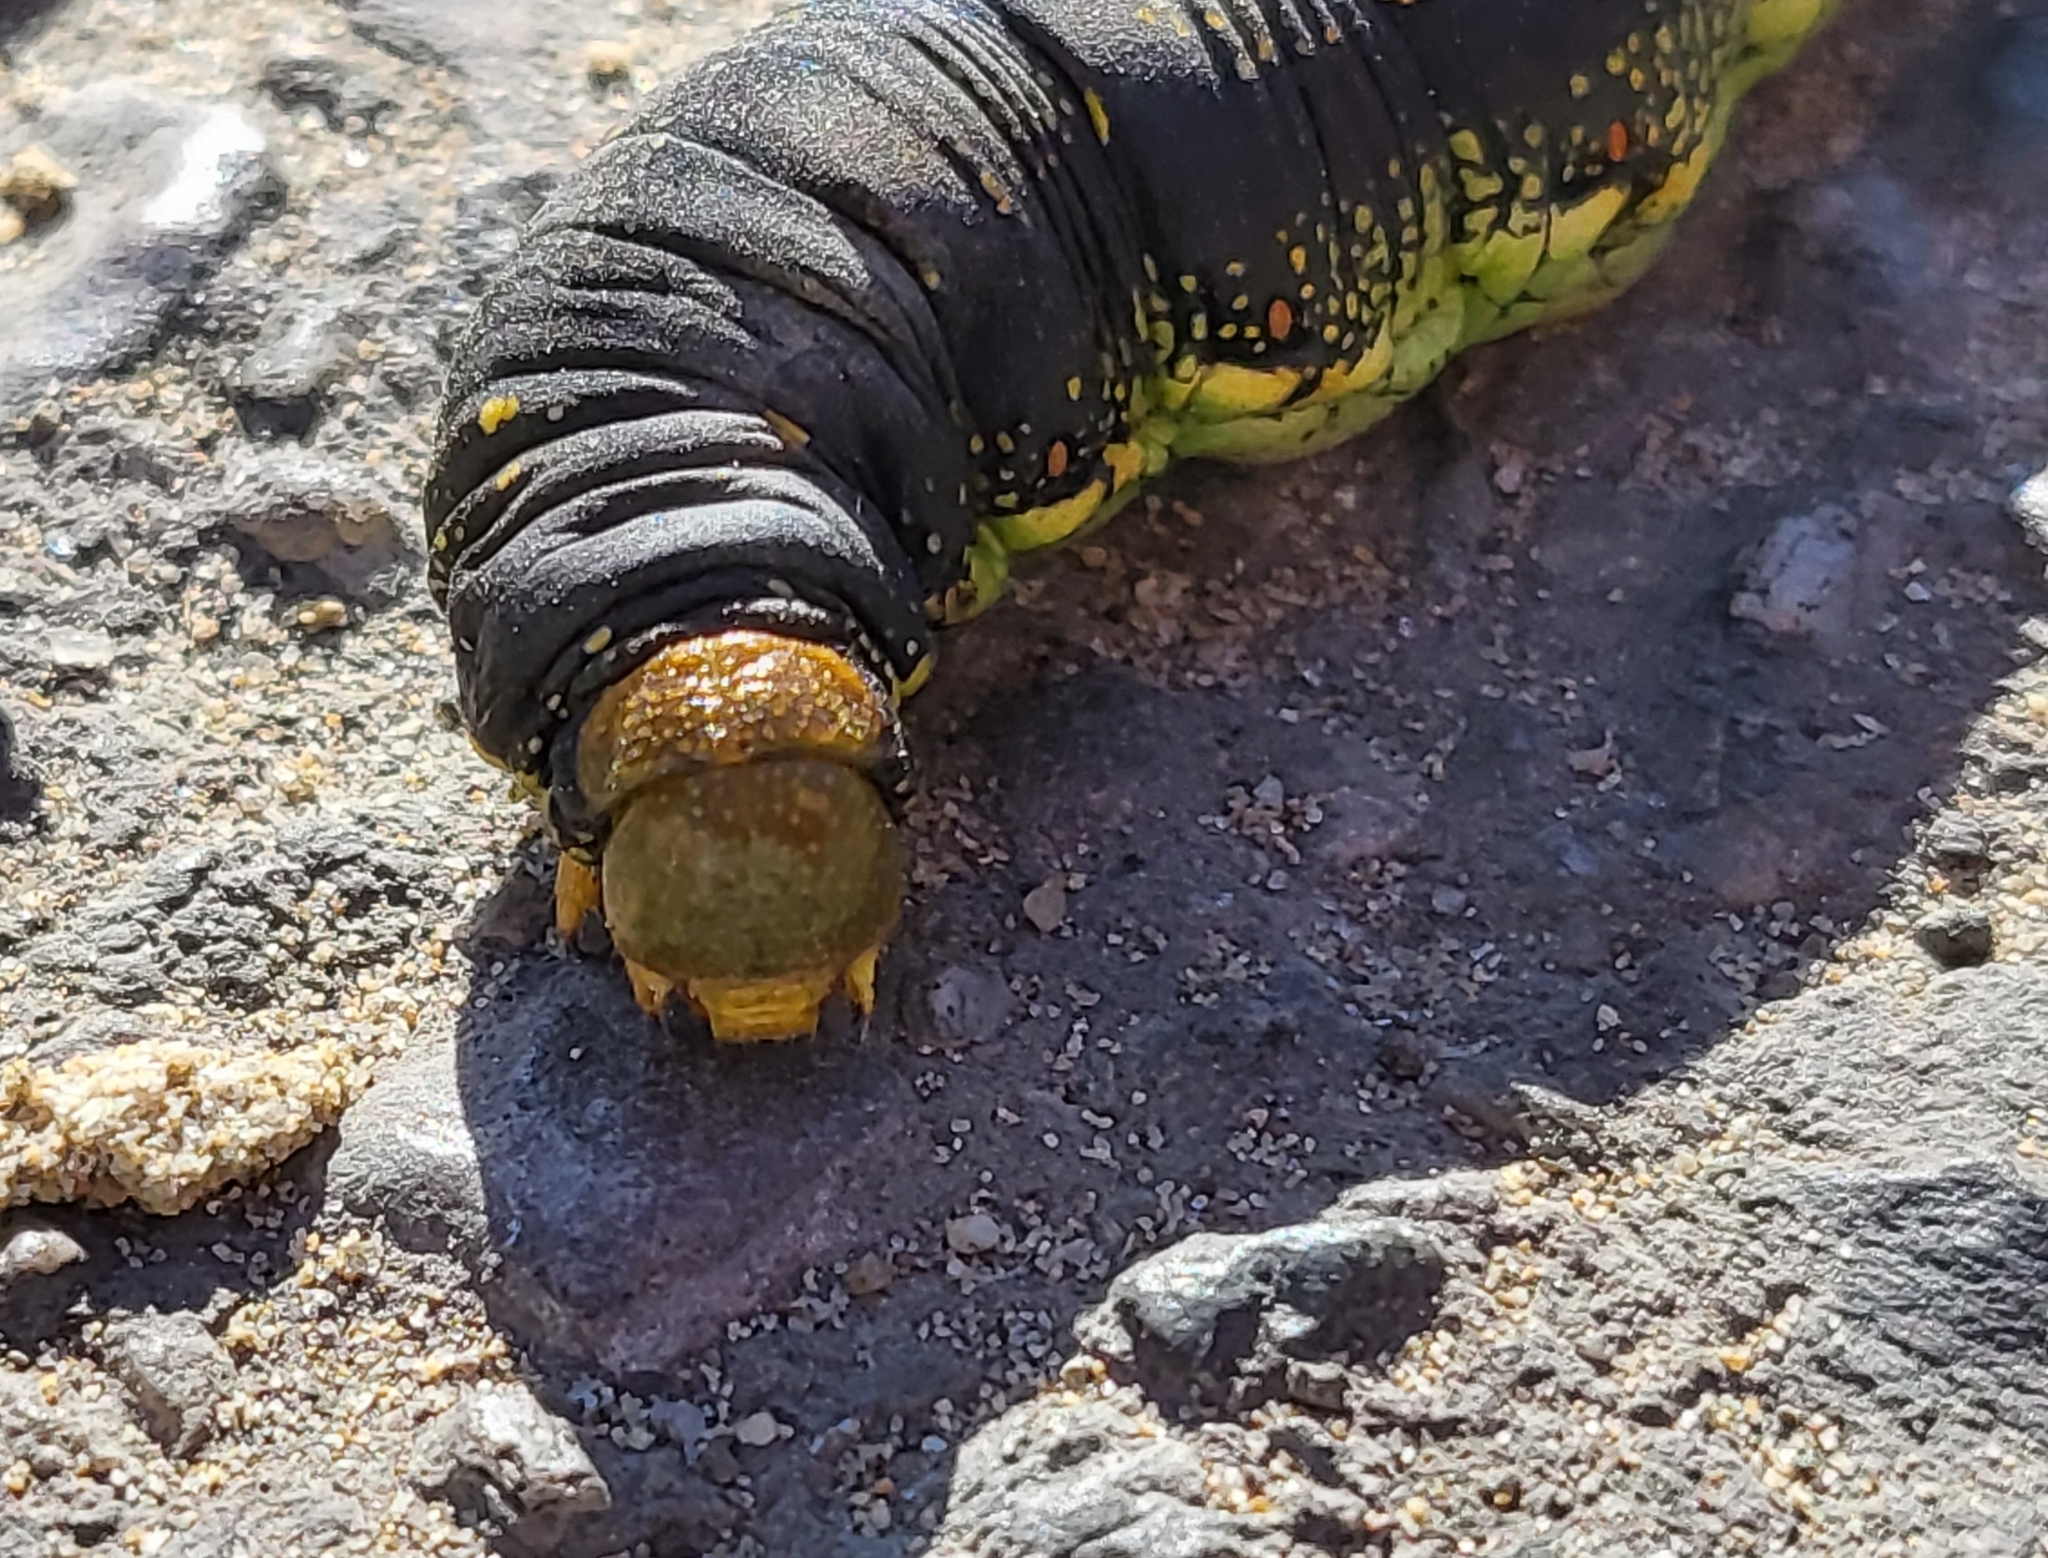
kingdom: Animalia
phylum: Arthropoda
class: Insecta
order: Lepidoptera
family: Sphingidae
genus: Hyles
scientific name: Hyles lineata
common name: White-lined sphinx
